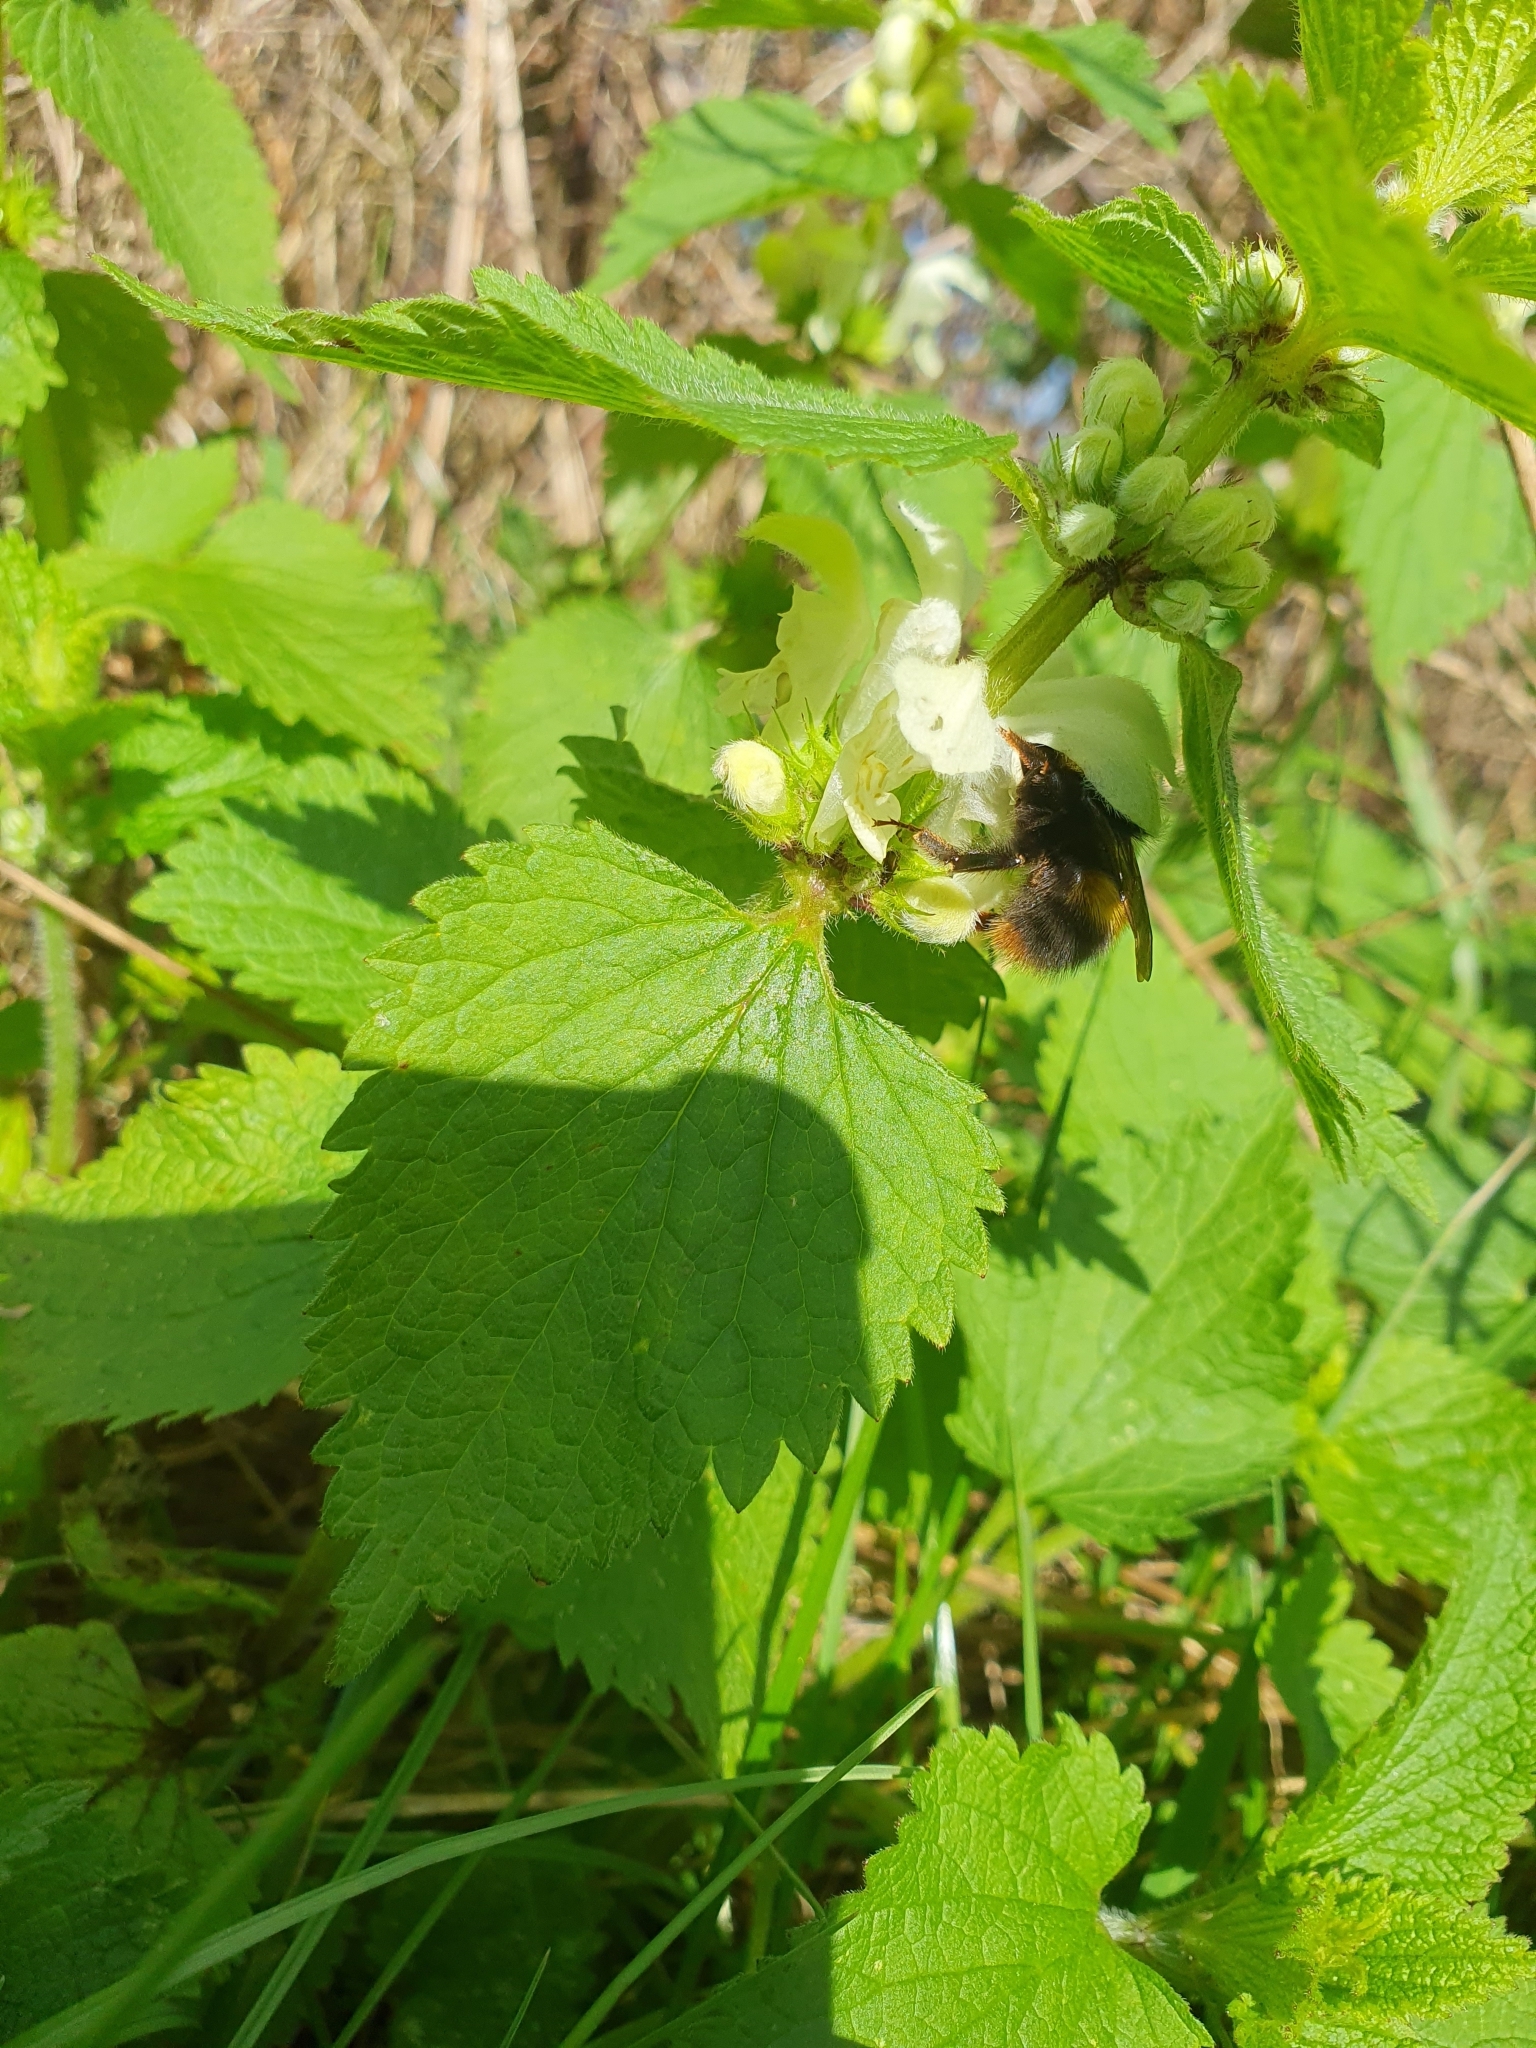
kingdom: Animalia
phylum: Arthropoda
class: Insecta
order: Hymenoptera
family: Apidae
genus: Bombus
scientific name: Bombus pratorum
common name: Early humble-bee
